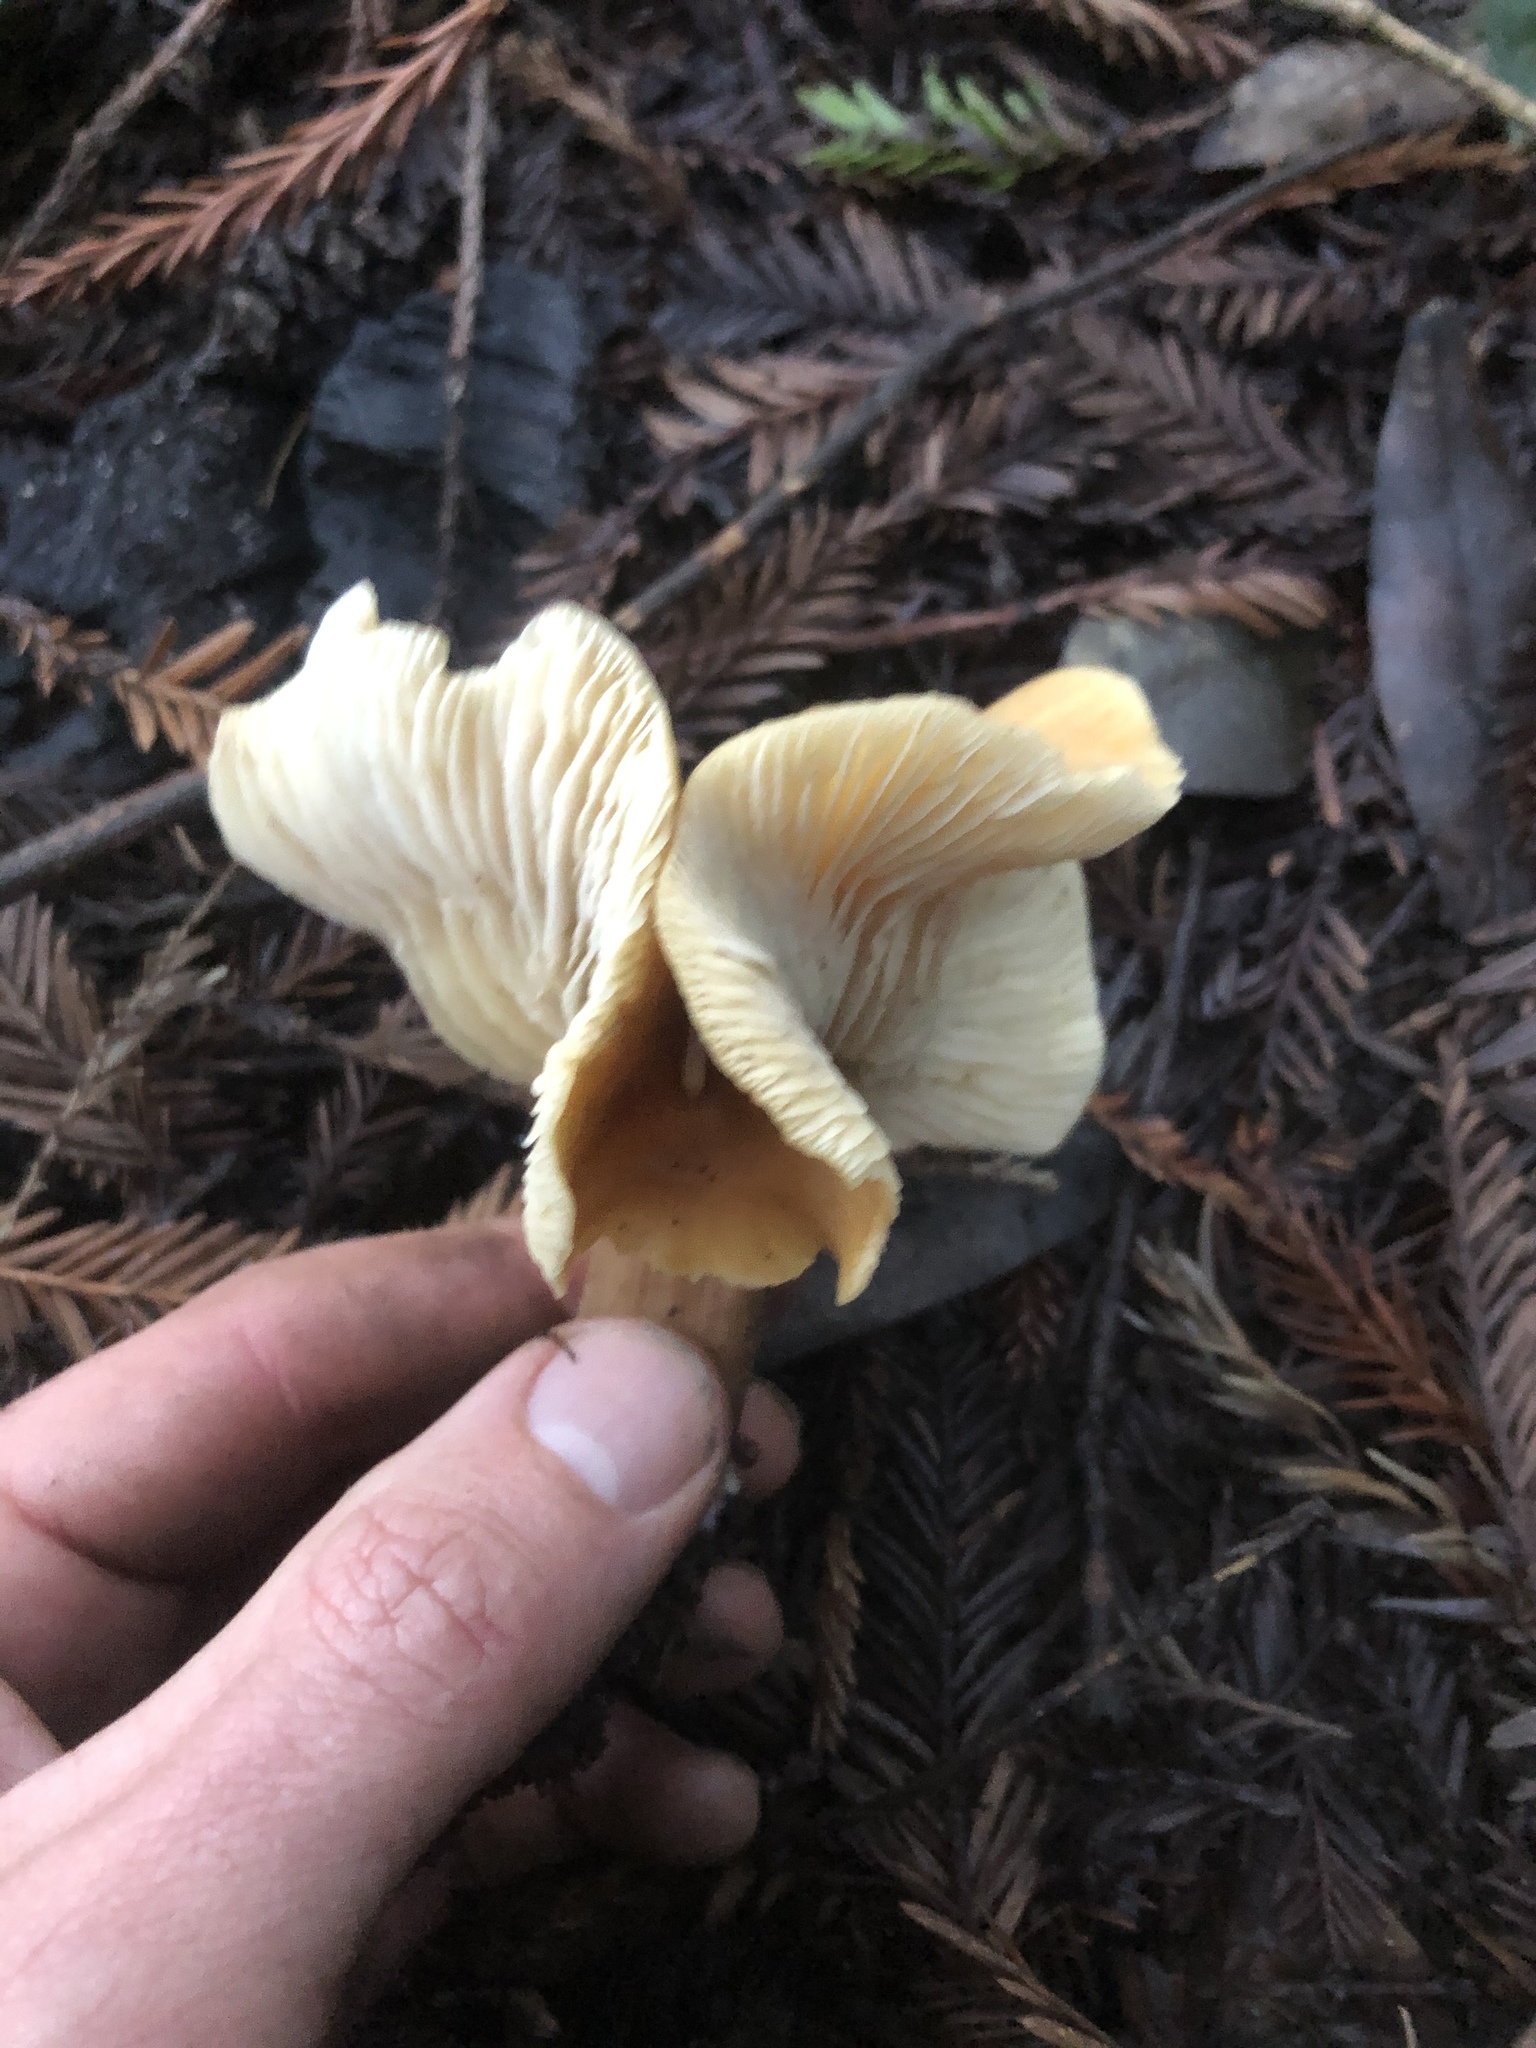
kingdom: Fungi
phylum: Basidiomycota
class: Agaricomycetes
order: Agaricales
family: Tricholomataceae
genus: Caulorhiza
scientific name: Caulorhiza umbonata
